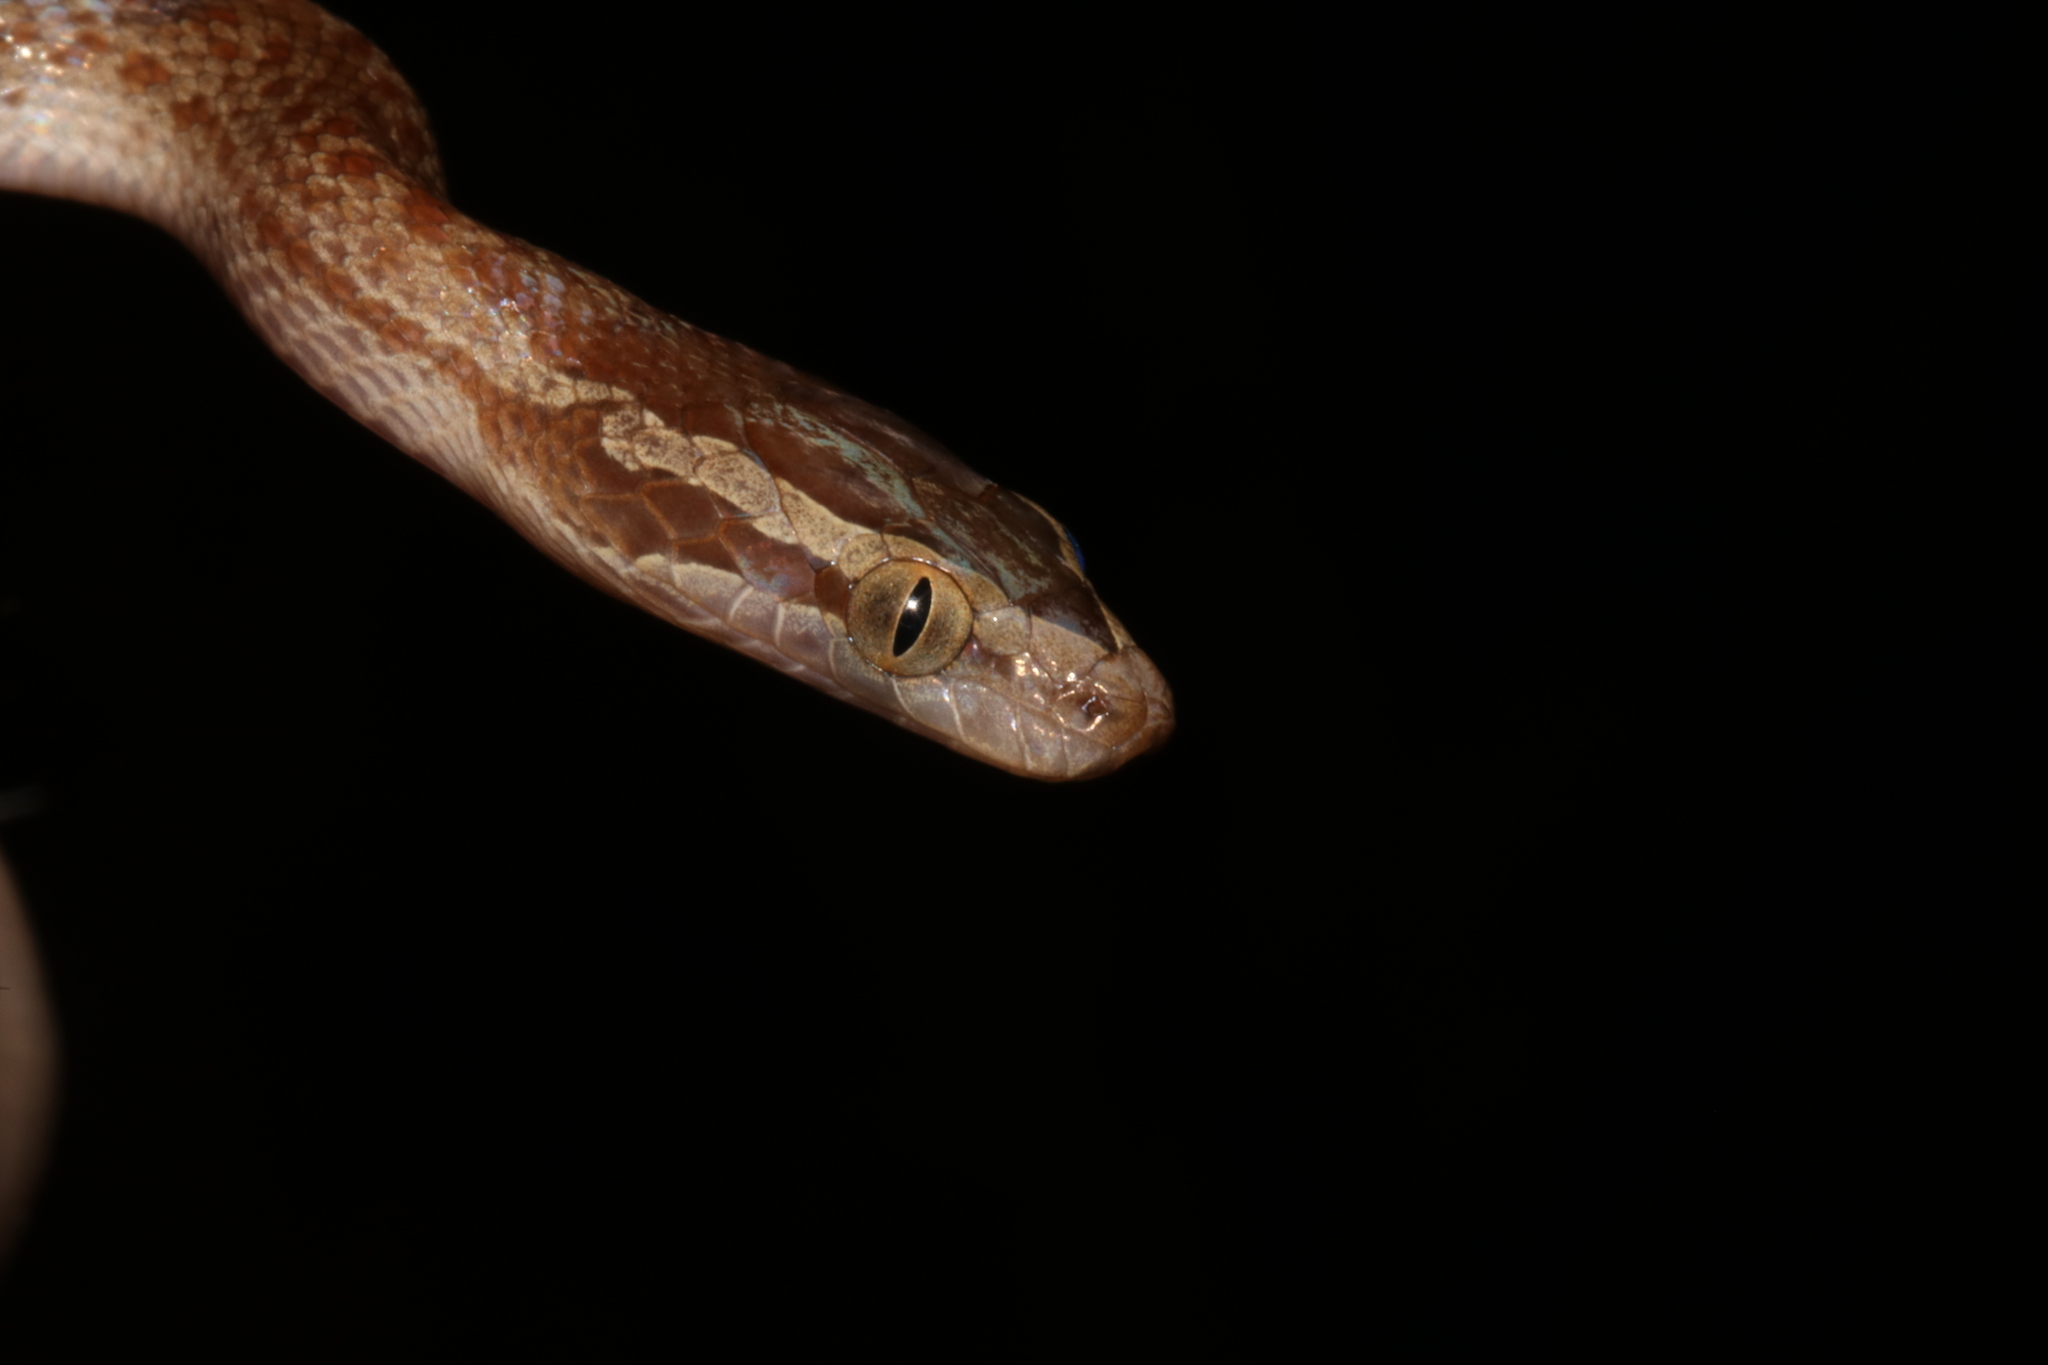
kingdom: Animalia
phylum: Chordata
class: Squamata
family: Lamprophiidae
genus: Boaedon
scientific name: Boaedon capensis
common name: Brown house snake
